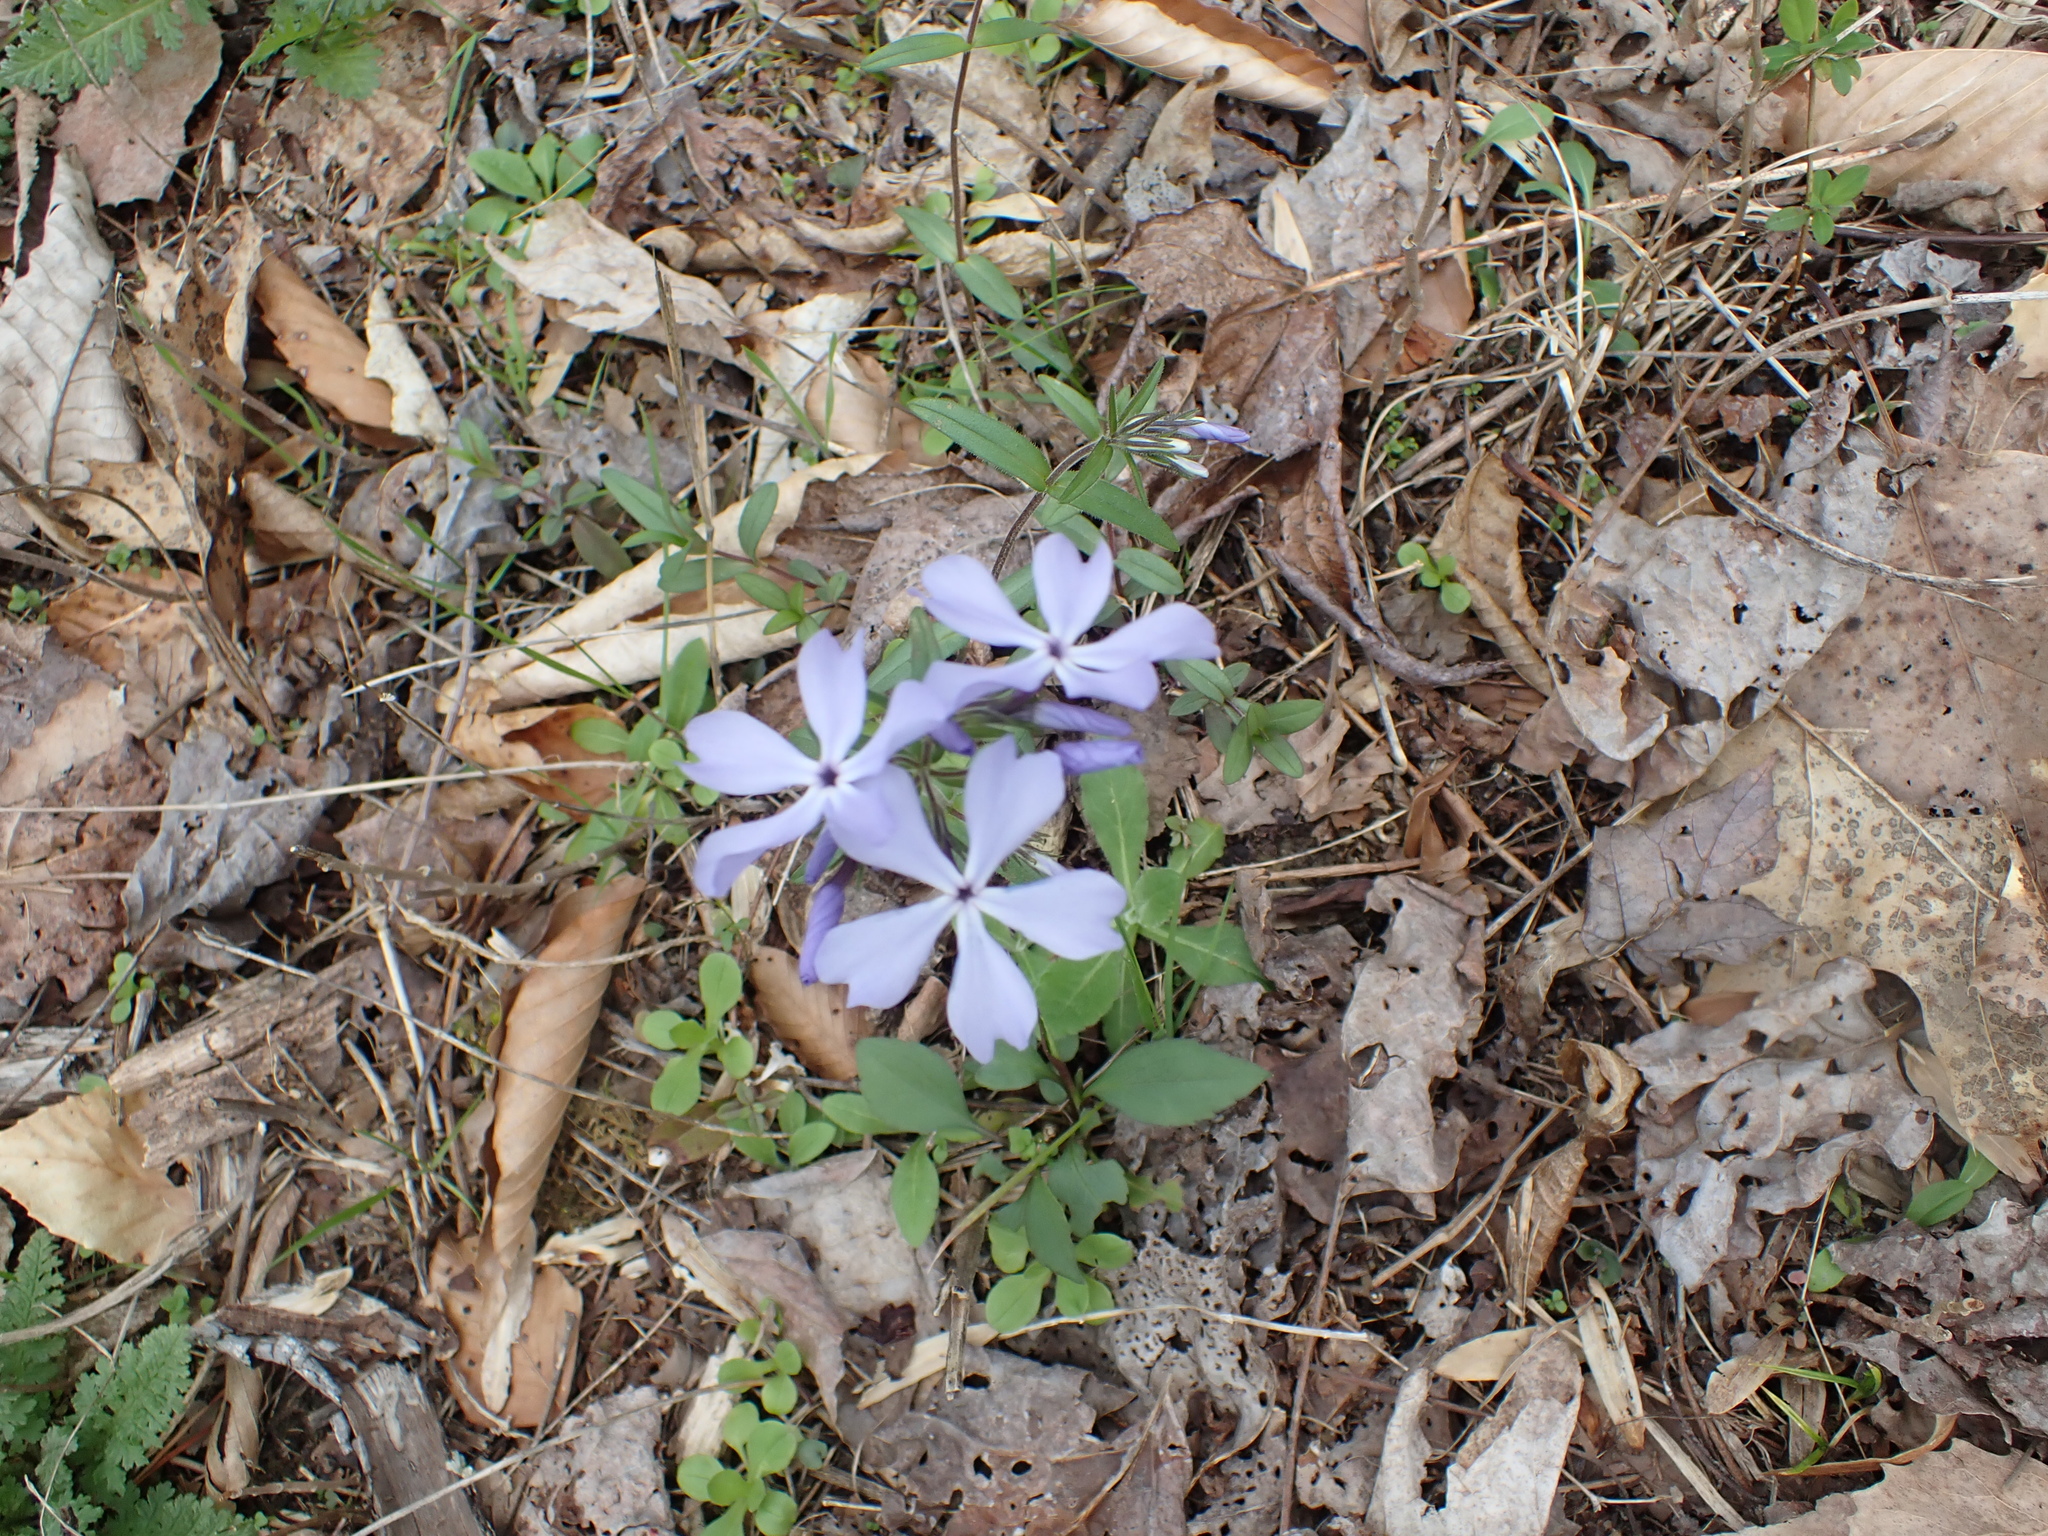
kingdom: Plantae
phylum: Tracheophyta
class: Magnoliopsida
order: Ericales
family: Polemoniaceae
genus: Phlox
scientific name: Phlox divaricata
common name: Blue phlox
